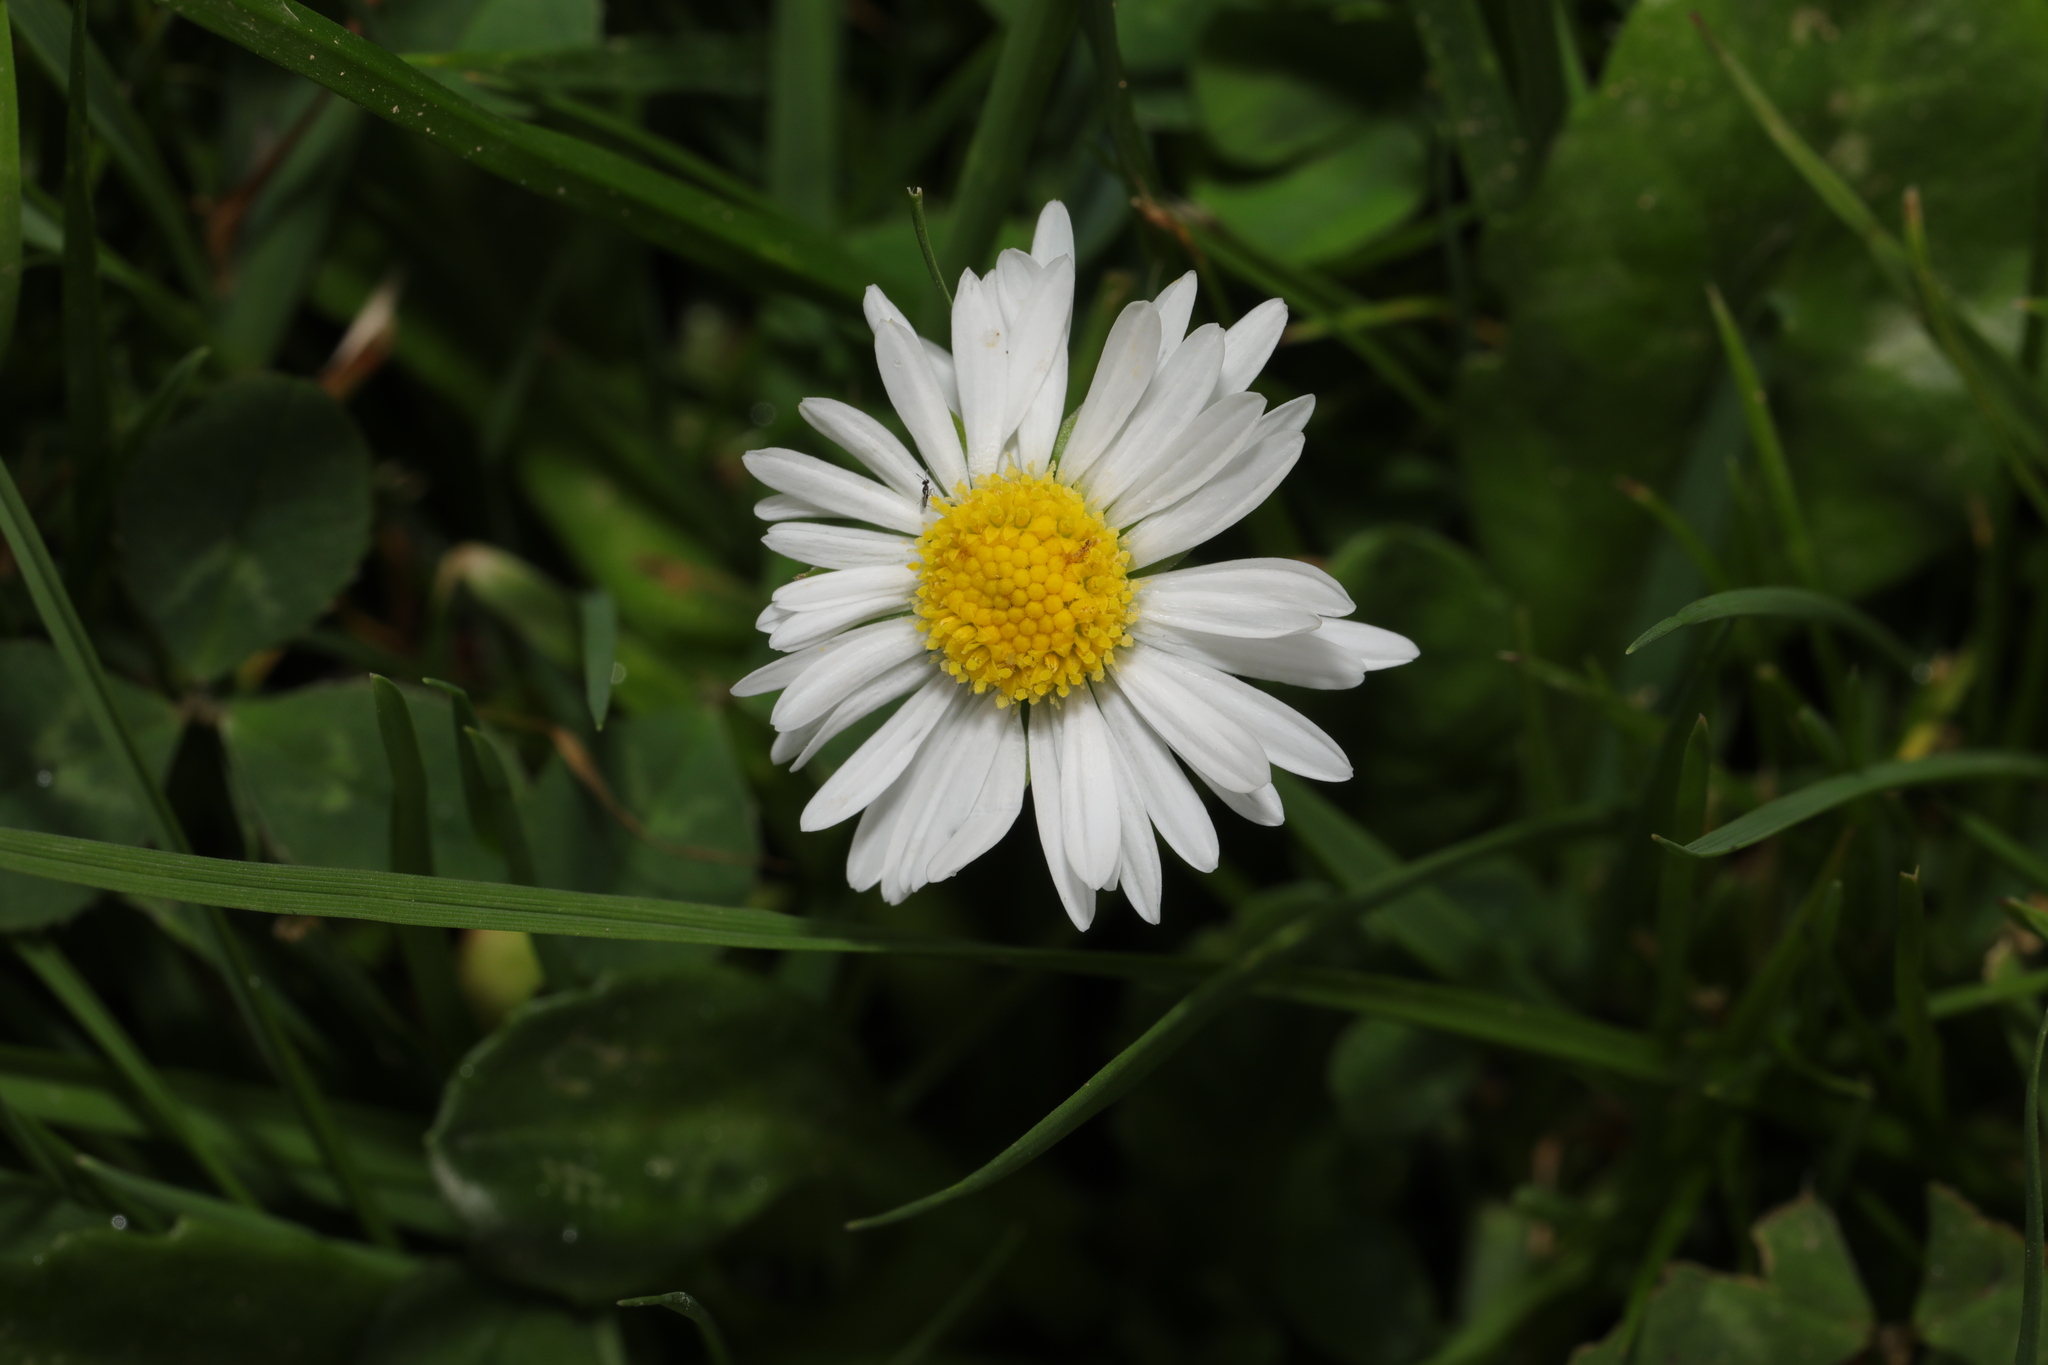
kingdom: Plantae
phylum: Tracheophyta
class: Magnoliopsida
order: Asterales
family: Asteraceae
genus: Bellis
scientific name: Bellis perennis
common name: Lawndaisy
